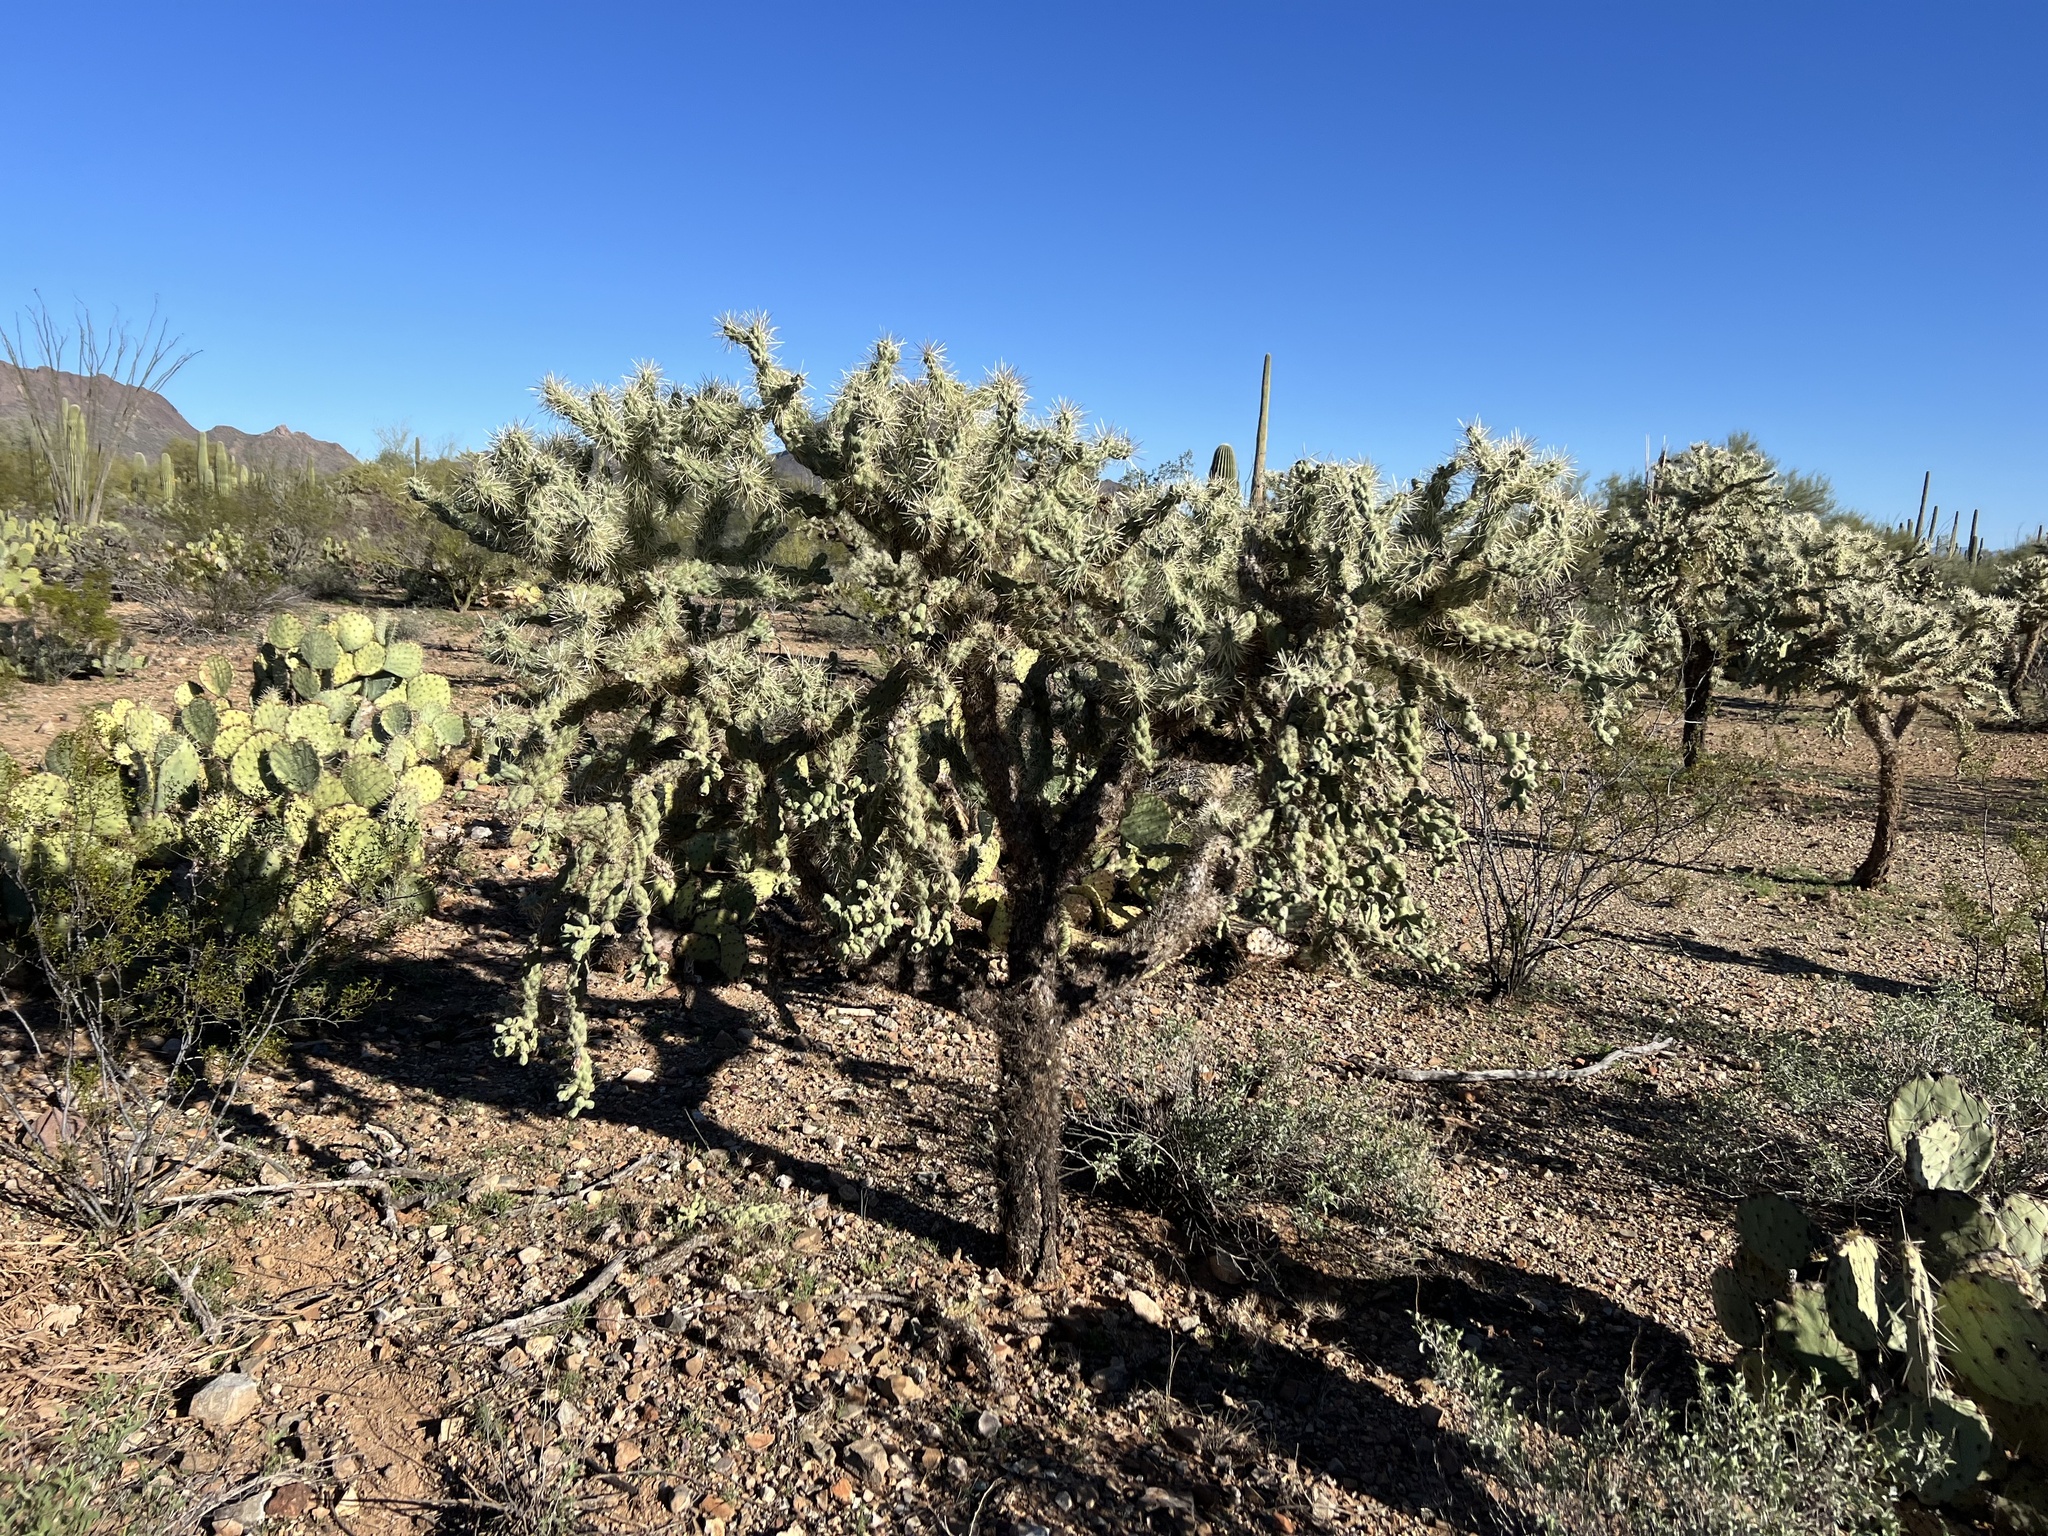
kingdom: Plantae
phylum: Tracheophyta
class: Magnoliopsida
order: Caryophyllales
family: Cactaceae
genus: Cylindropuntia
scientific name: Cylindropuntia fulgida
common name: Jumping cholla
